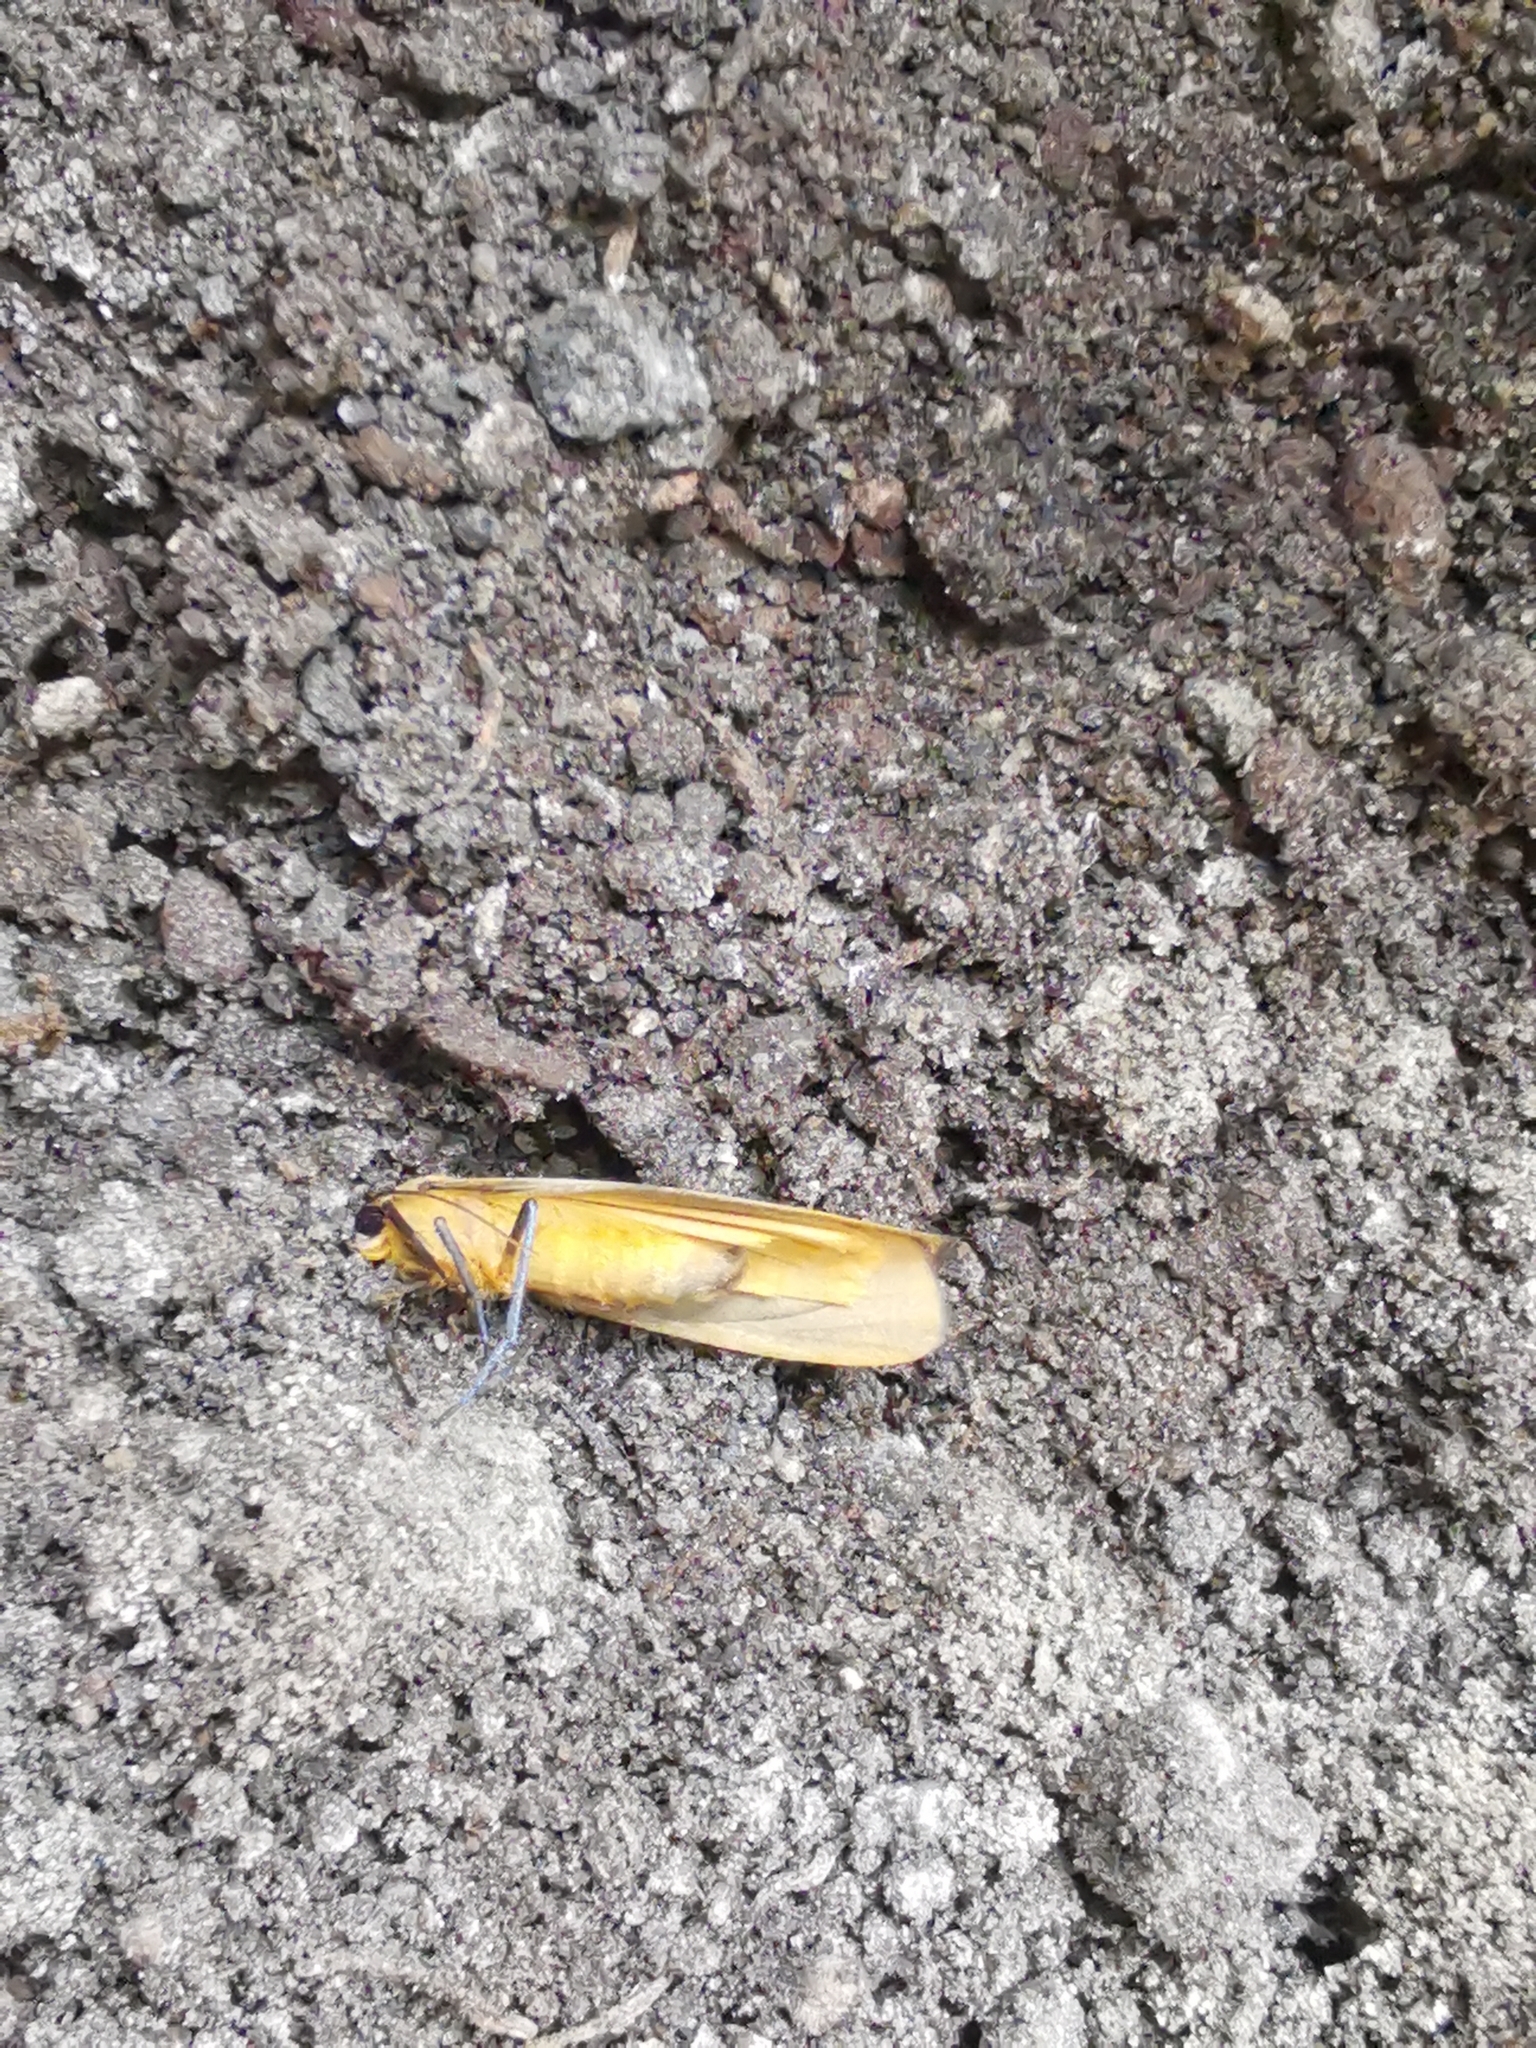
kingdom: Animalia
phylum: Arthropoda
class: Insecta
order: Lepidoptera
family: Erebidae
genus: Lithosia
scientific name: Lithosia quadra
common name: Four-spotted footman
